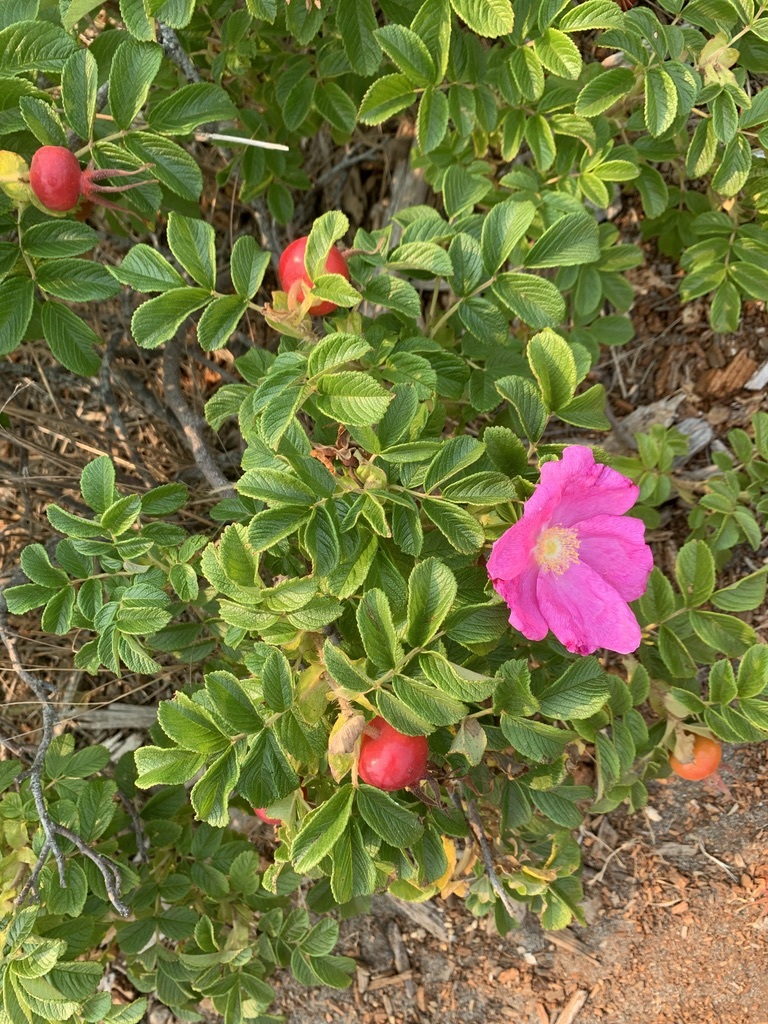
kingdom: Plantae
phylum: Tracheophyta
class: Magnoliopsida
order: Rosales
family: Rosaceae
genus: Rosa
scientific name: Rosa rugosa
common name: Japanese rose
